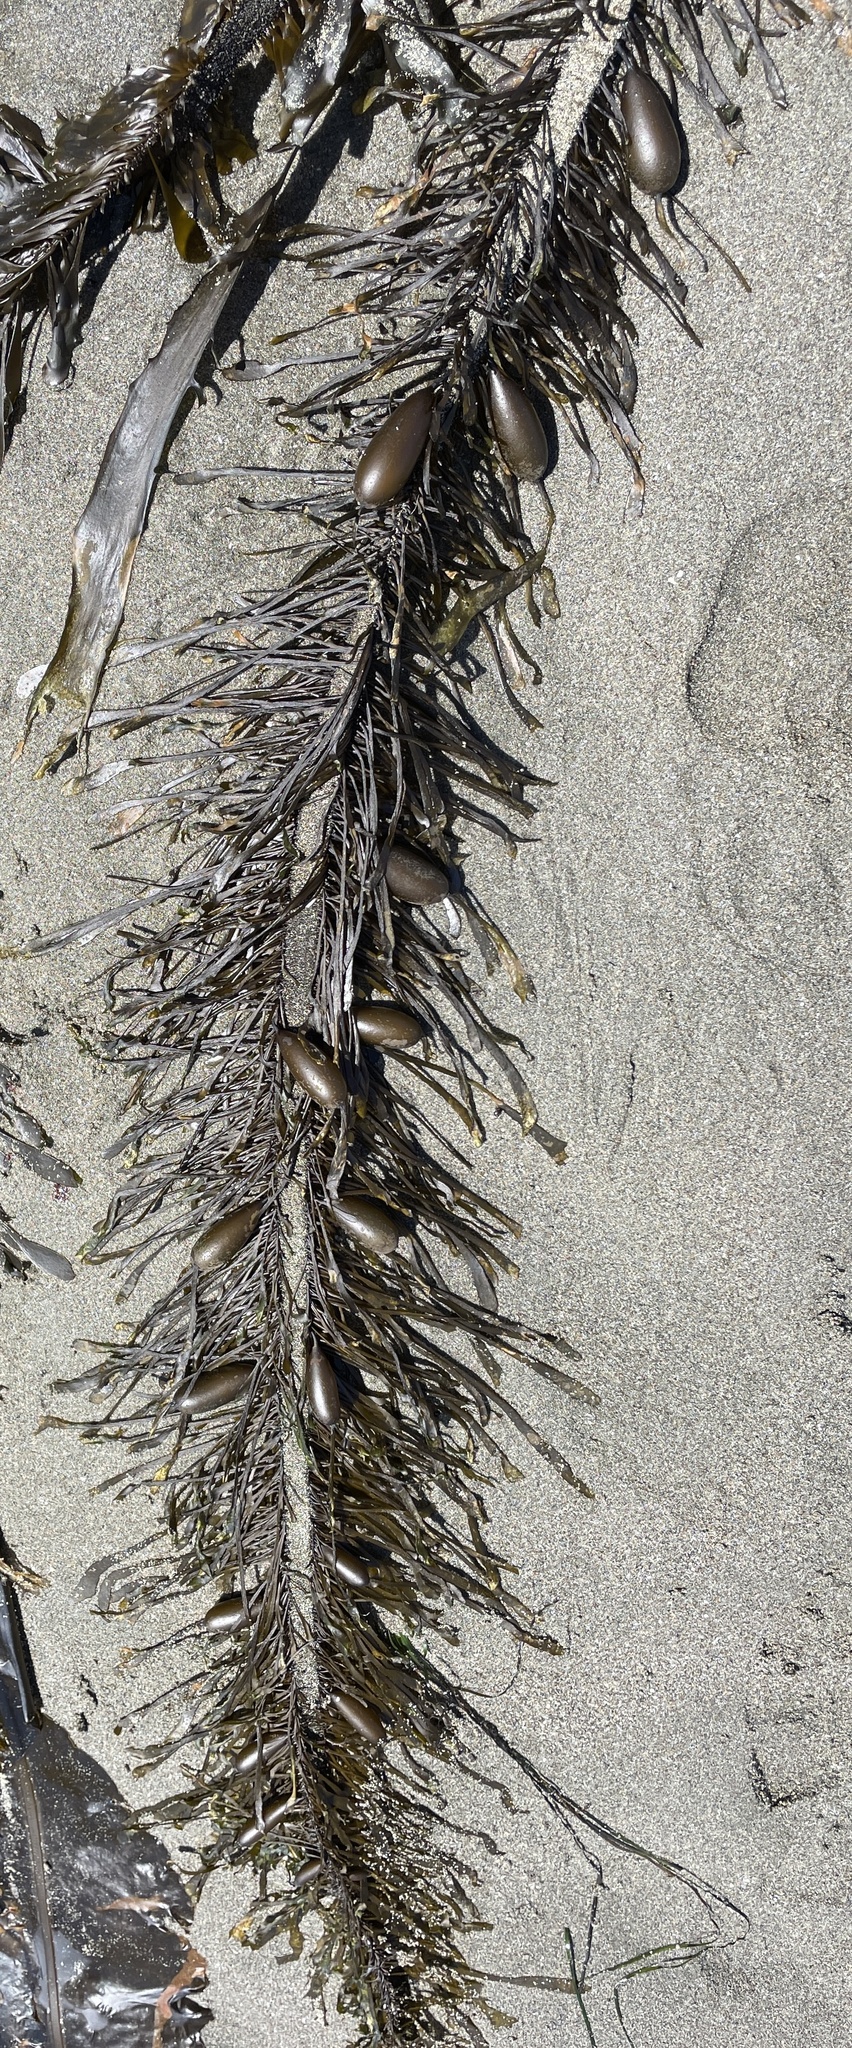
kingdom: Chromista
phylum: Ochrophyta
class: Phaeophyceae
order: Laminariales
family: Lessoniaceae
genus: Egregia
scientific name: Egregia menziesii
